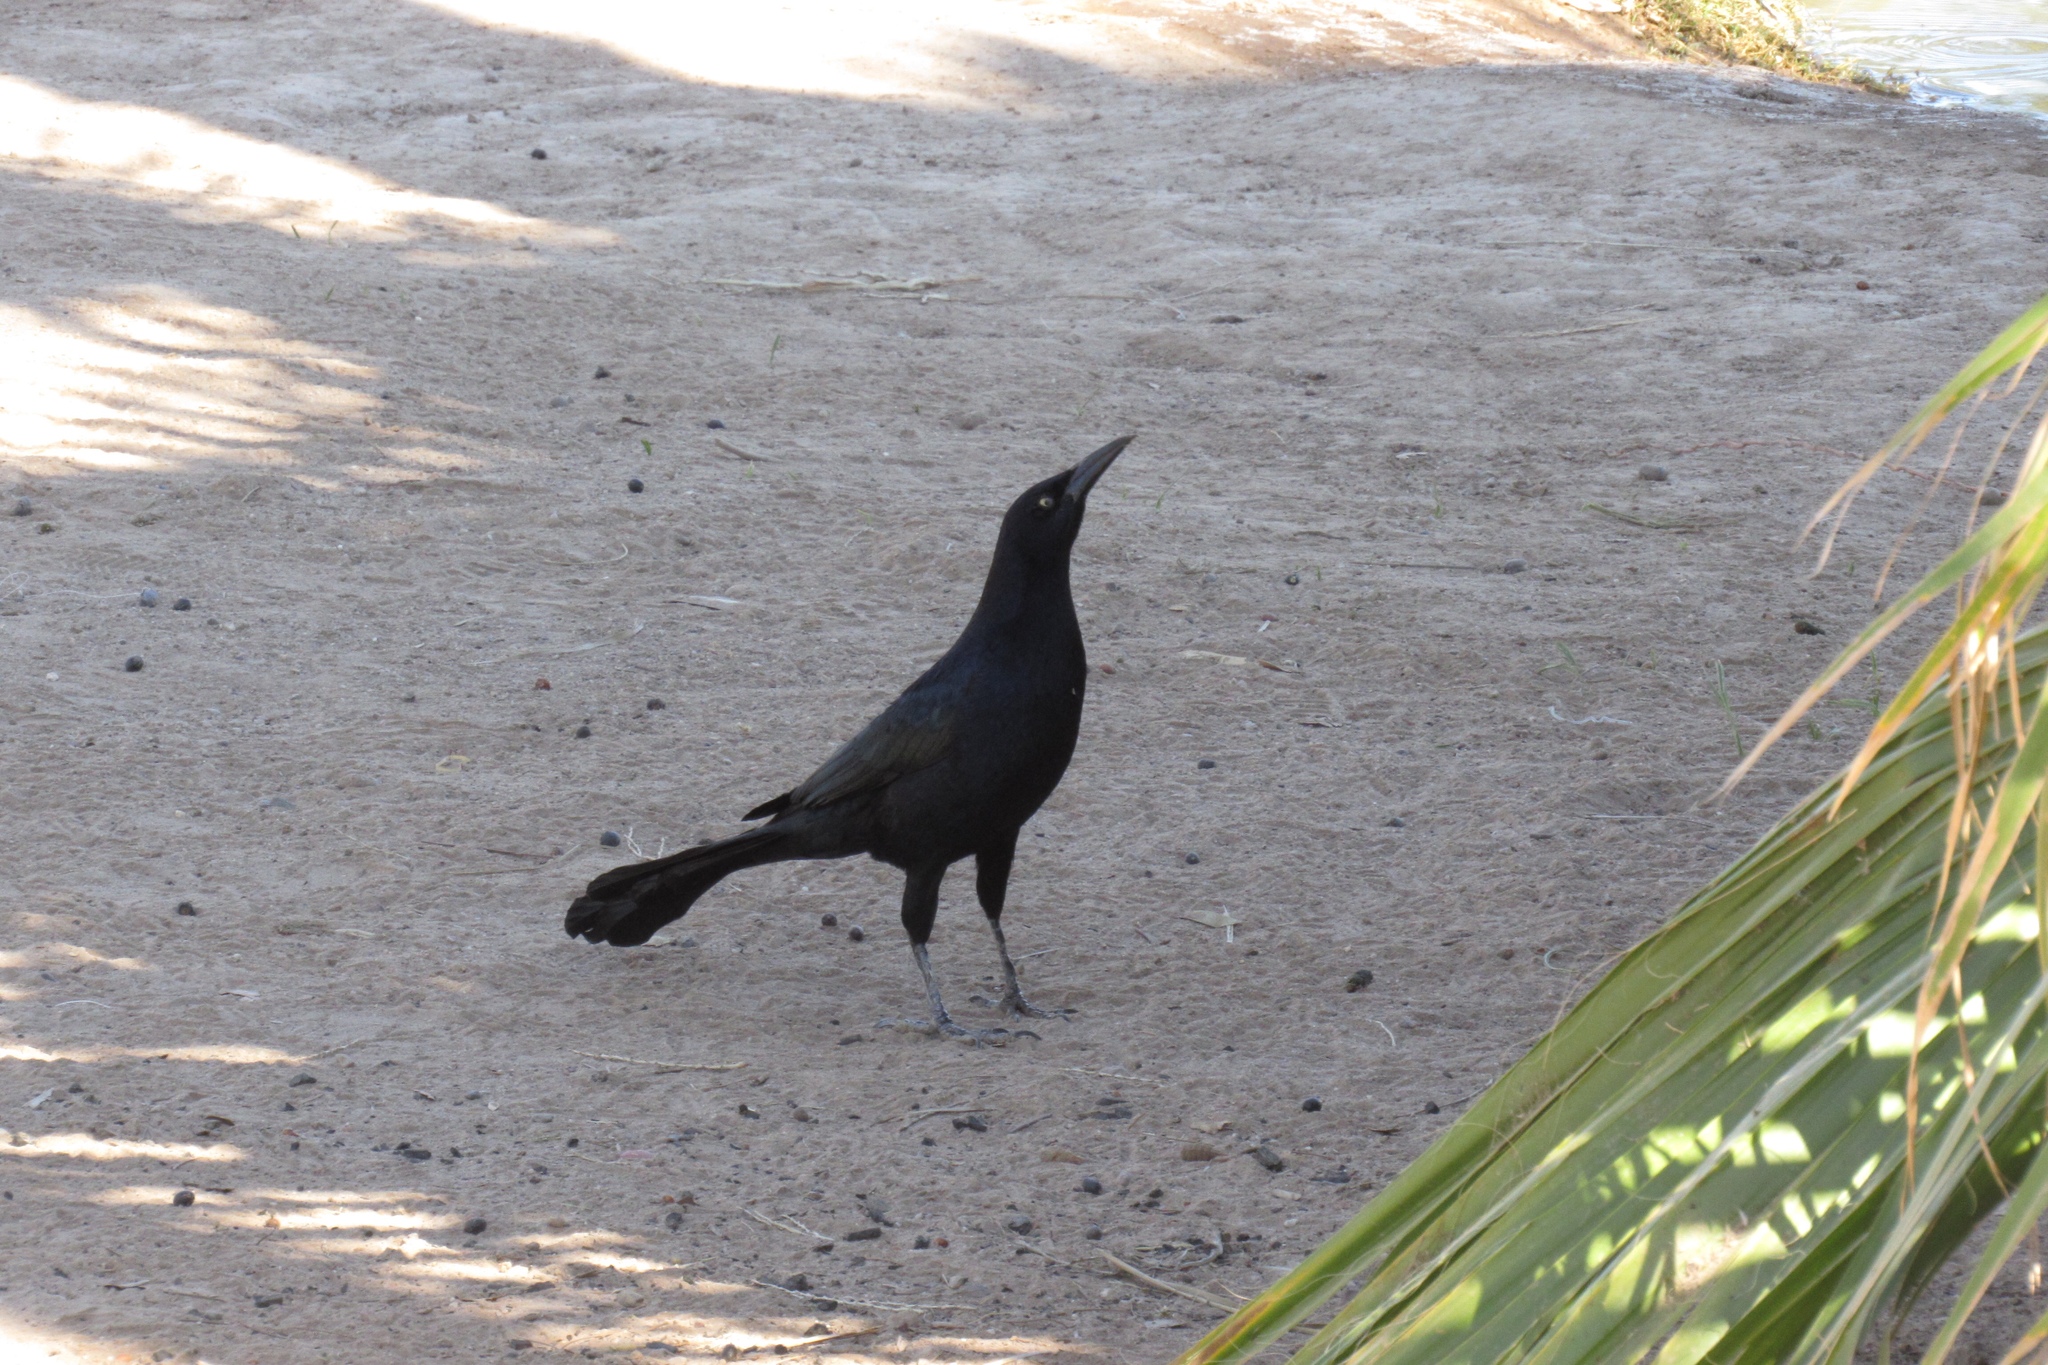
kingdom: Animalia
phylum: Chordata
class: Aves
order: Passeriformes
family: Icteridae
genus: Quiscalus
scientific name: Quiscalus mexicanus
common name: Great-tailed grackle
